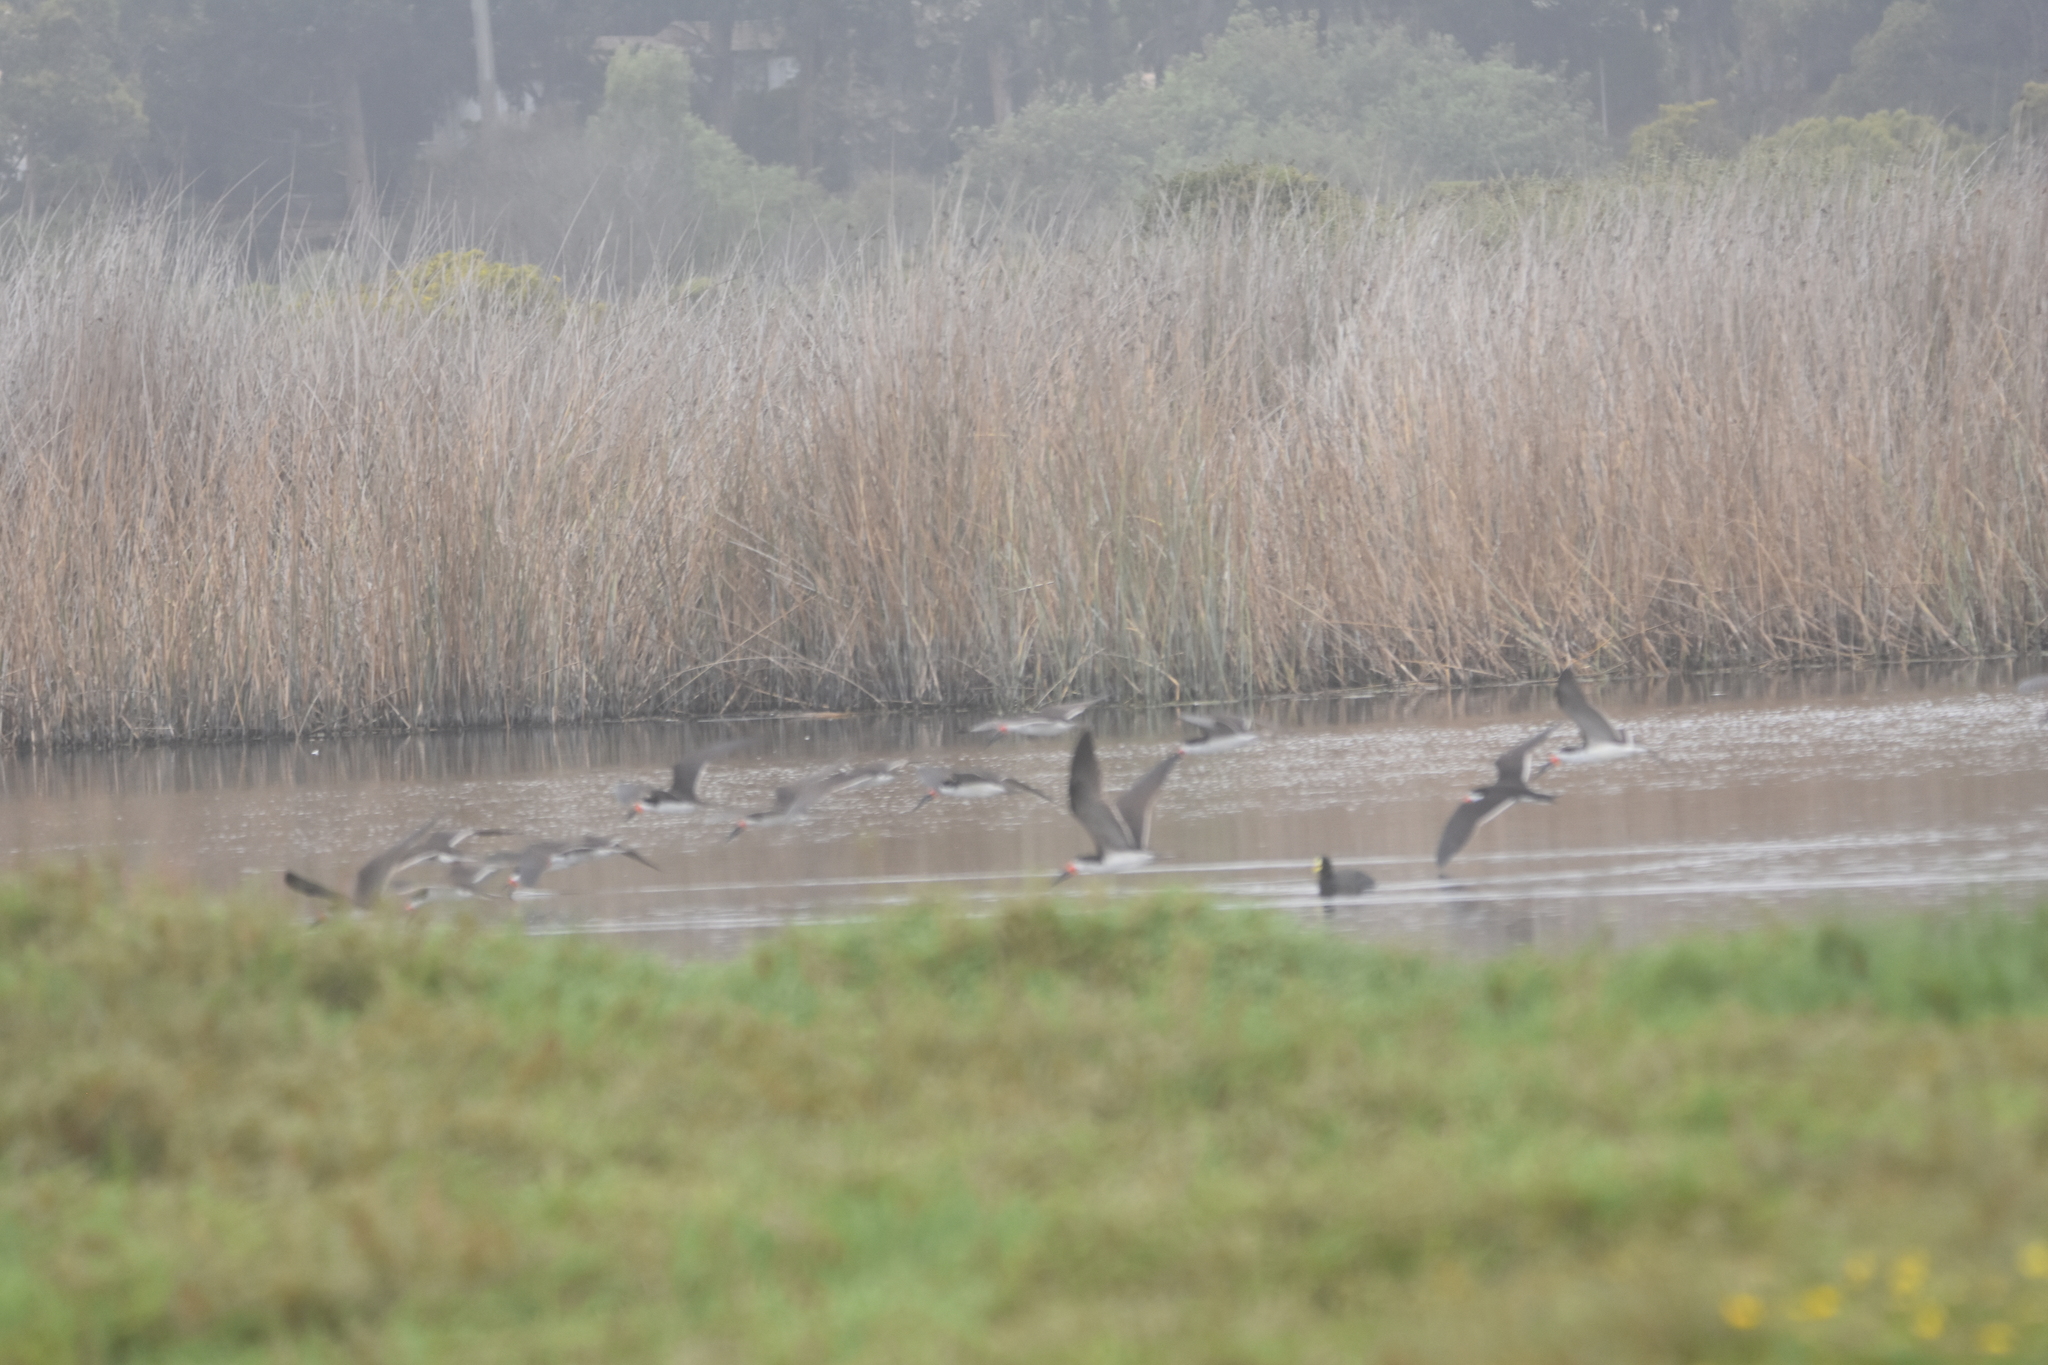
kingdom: Animalia
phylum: Chordata
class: Aves
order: Charadriiformes
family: Laridae
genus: Rynchops
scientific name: Rynchops niger
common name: Black skimmer
